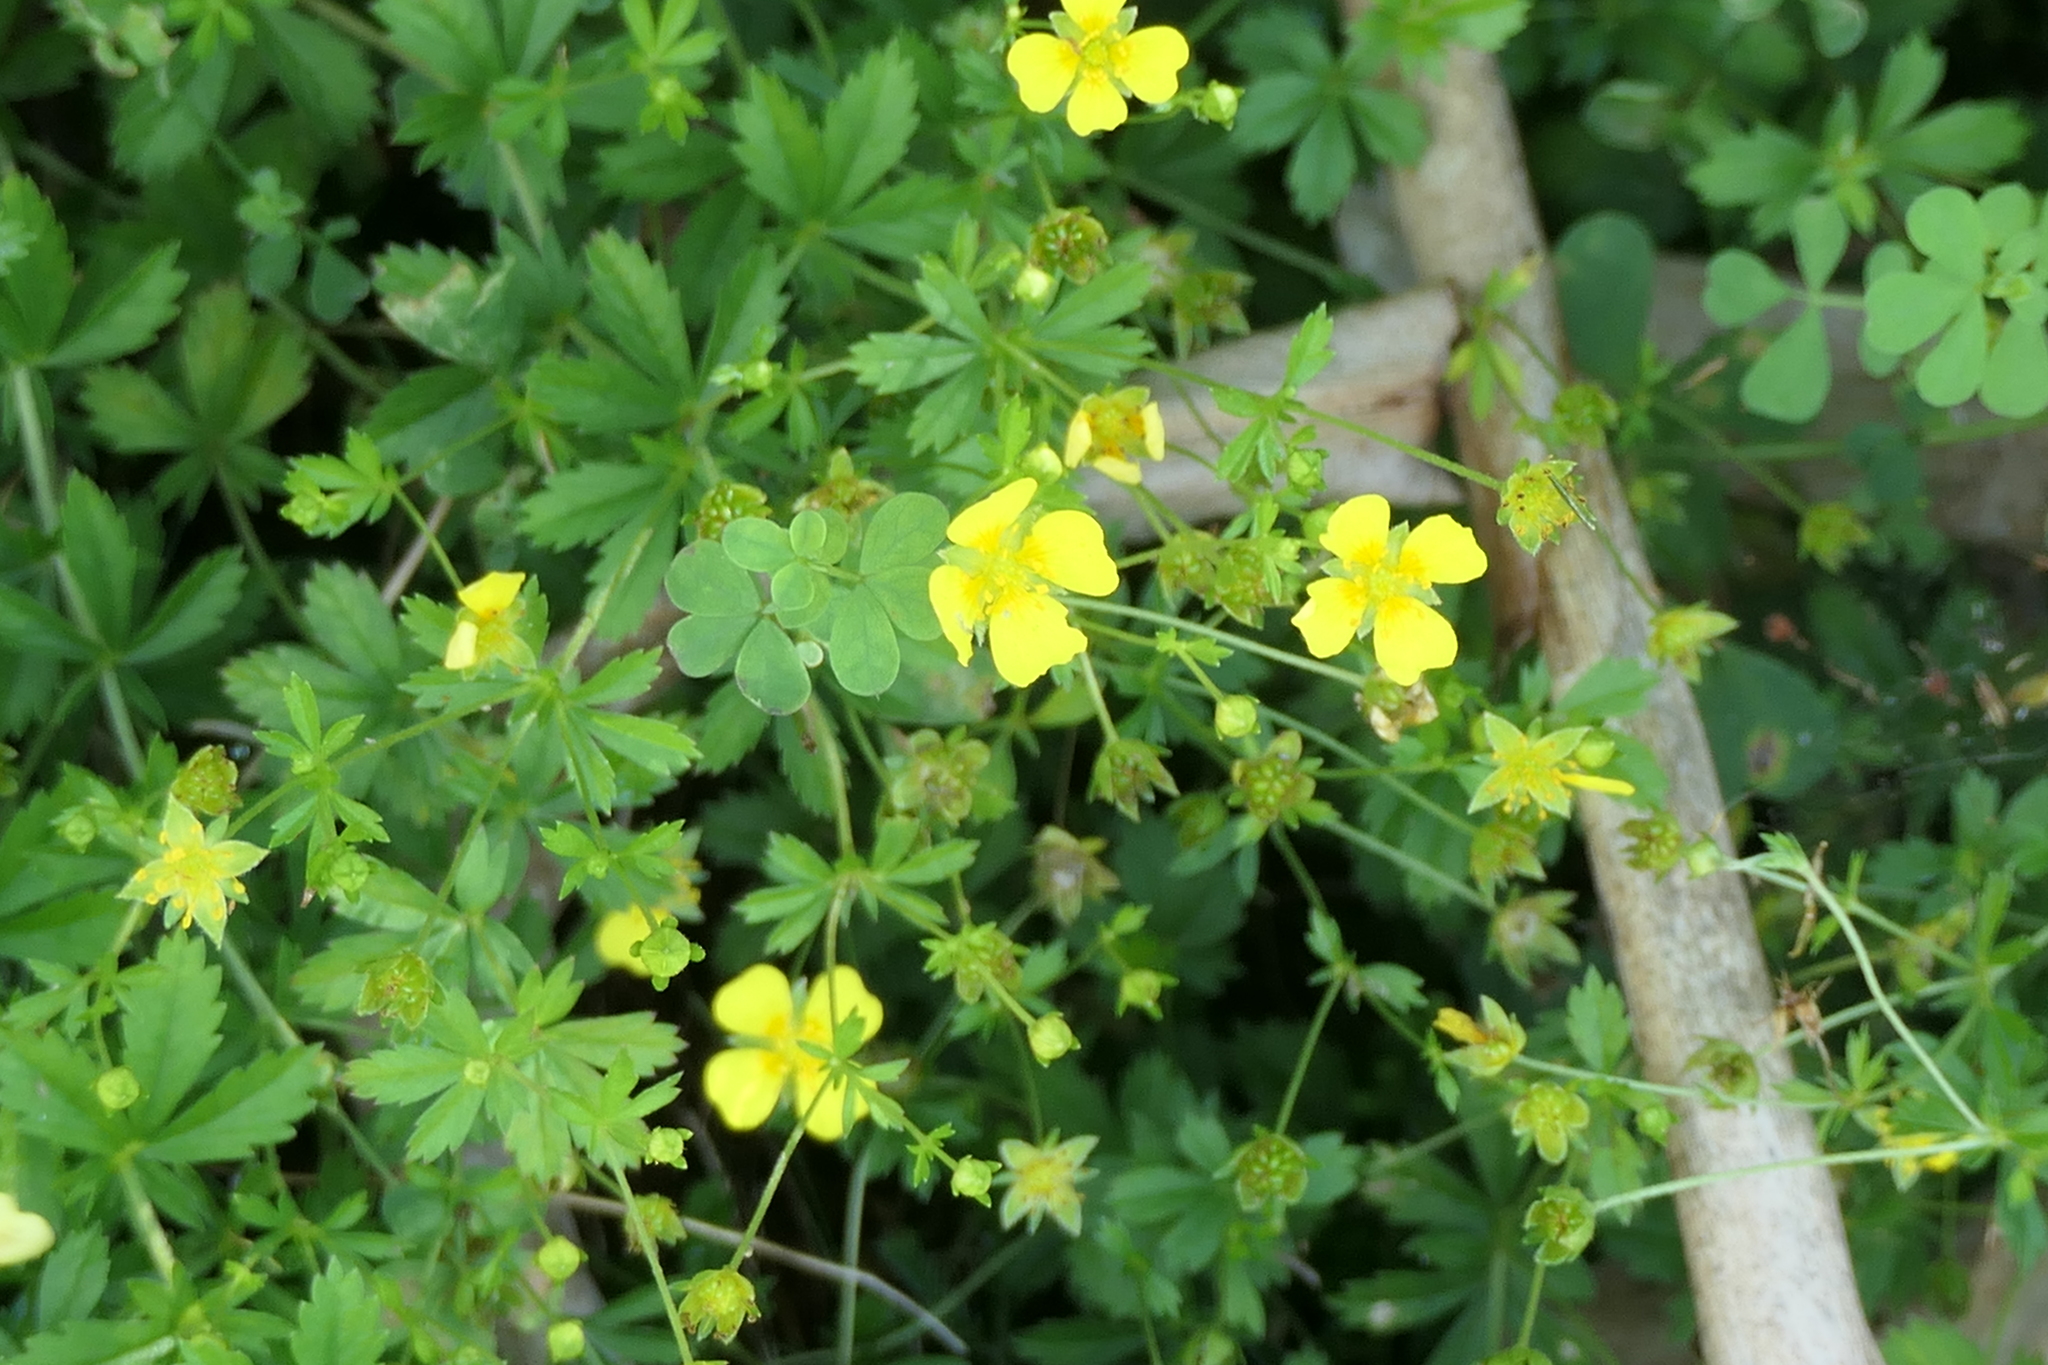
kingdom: Plantae
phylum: Tracheophyta
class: Magnoliopsida
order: Rosales
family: Rosaceae
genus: Potentilla
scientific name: Potentilla erecta
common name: Tormentil
